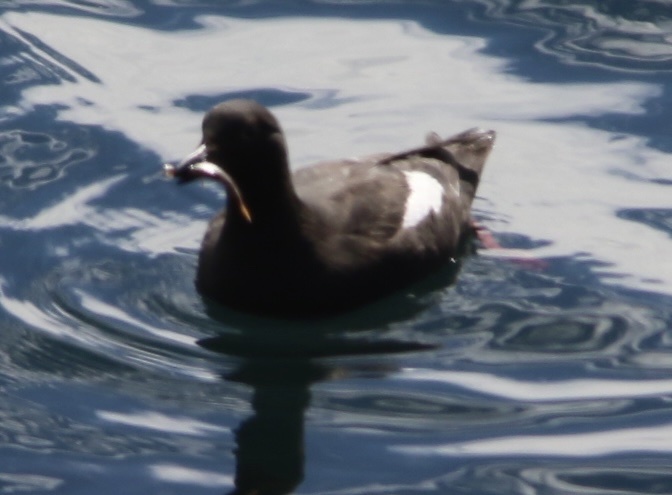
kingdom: Animalia
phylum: Chordata
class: Aves
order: Charadriiformes
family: Alcidae
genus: Cepphus
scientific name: Cepphus columba
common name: Pigeon guillemot
